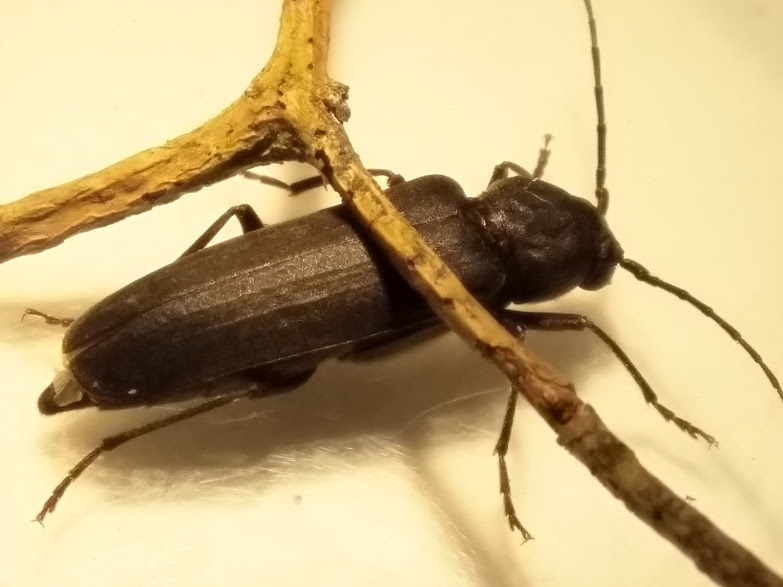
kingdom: Animalia
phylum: Arthropoda
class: Insecta
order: Coleoptera
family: Cerambycidae
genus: Arhopalus
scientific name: Arhopalus ferus
